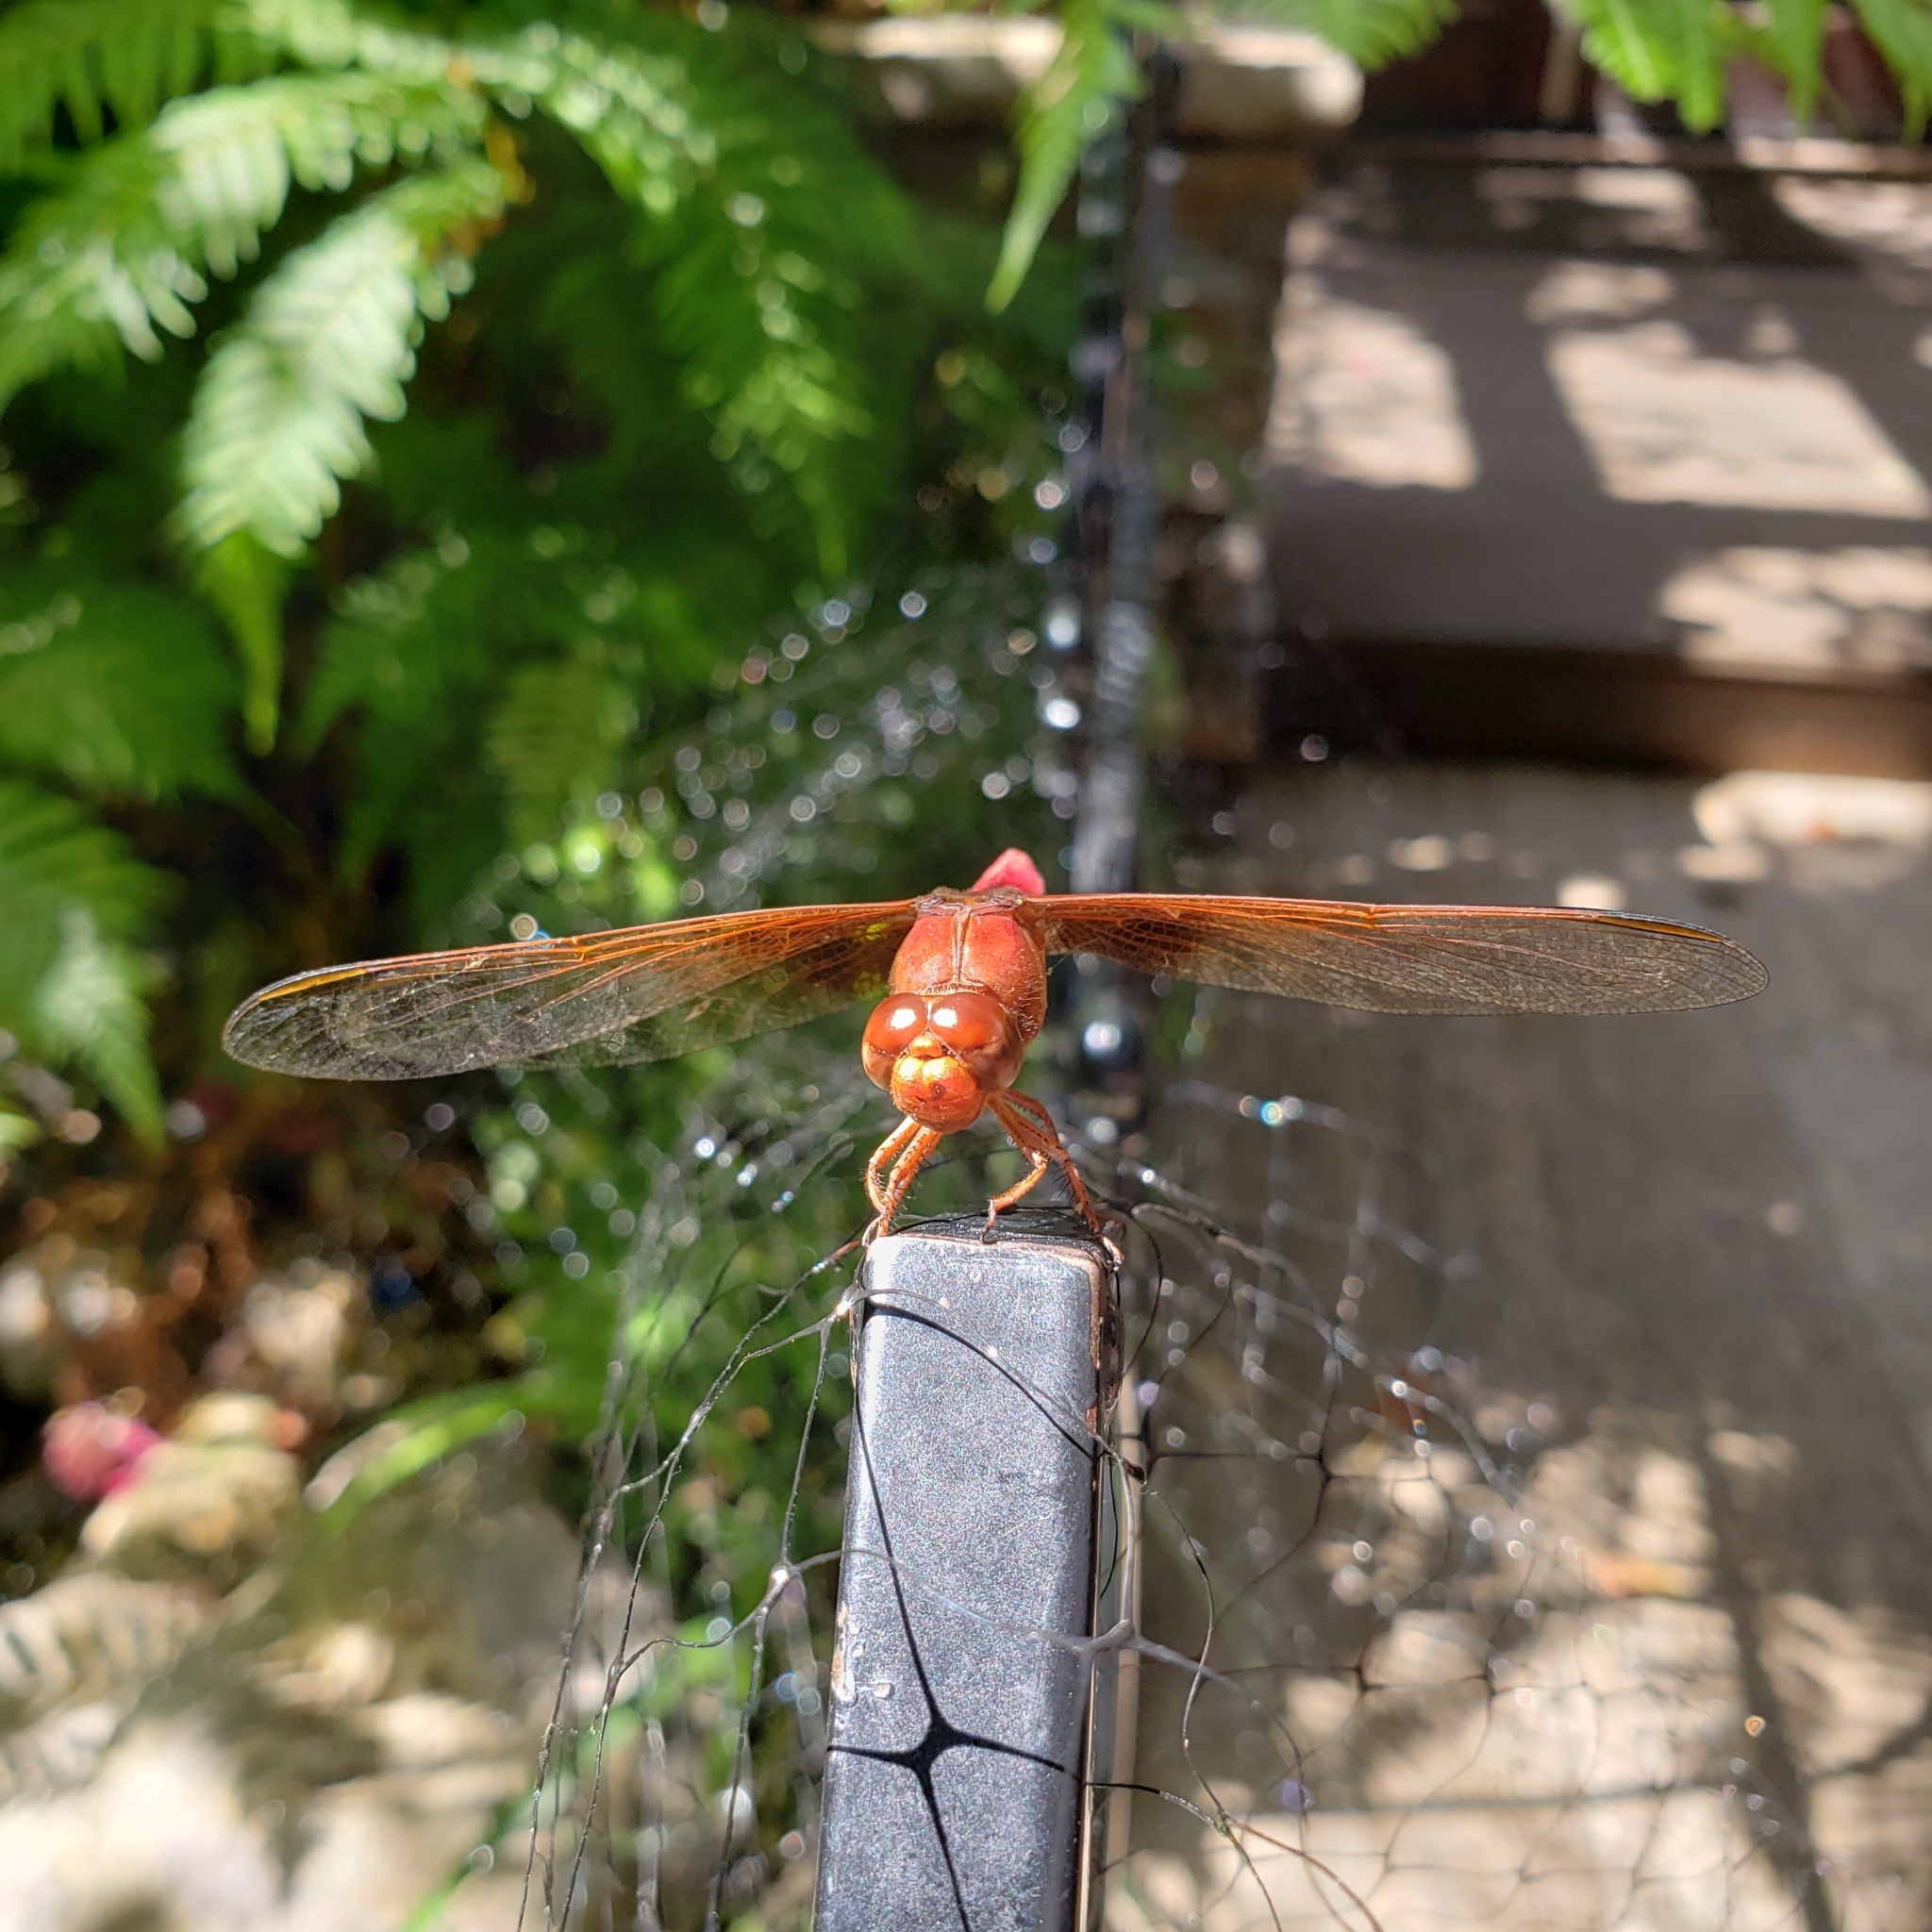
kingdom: Animalia
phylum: Arthropoda
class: Insecta
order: Odonata
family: Libellulidae
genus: Libellula
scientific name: Libellula croceipennis
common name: Neon skimmer
